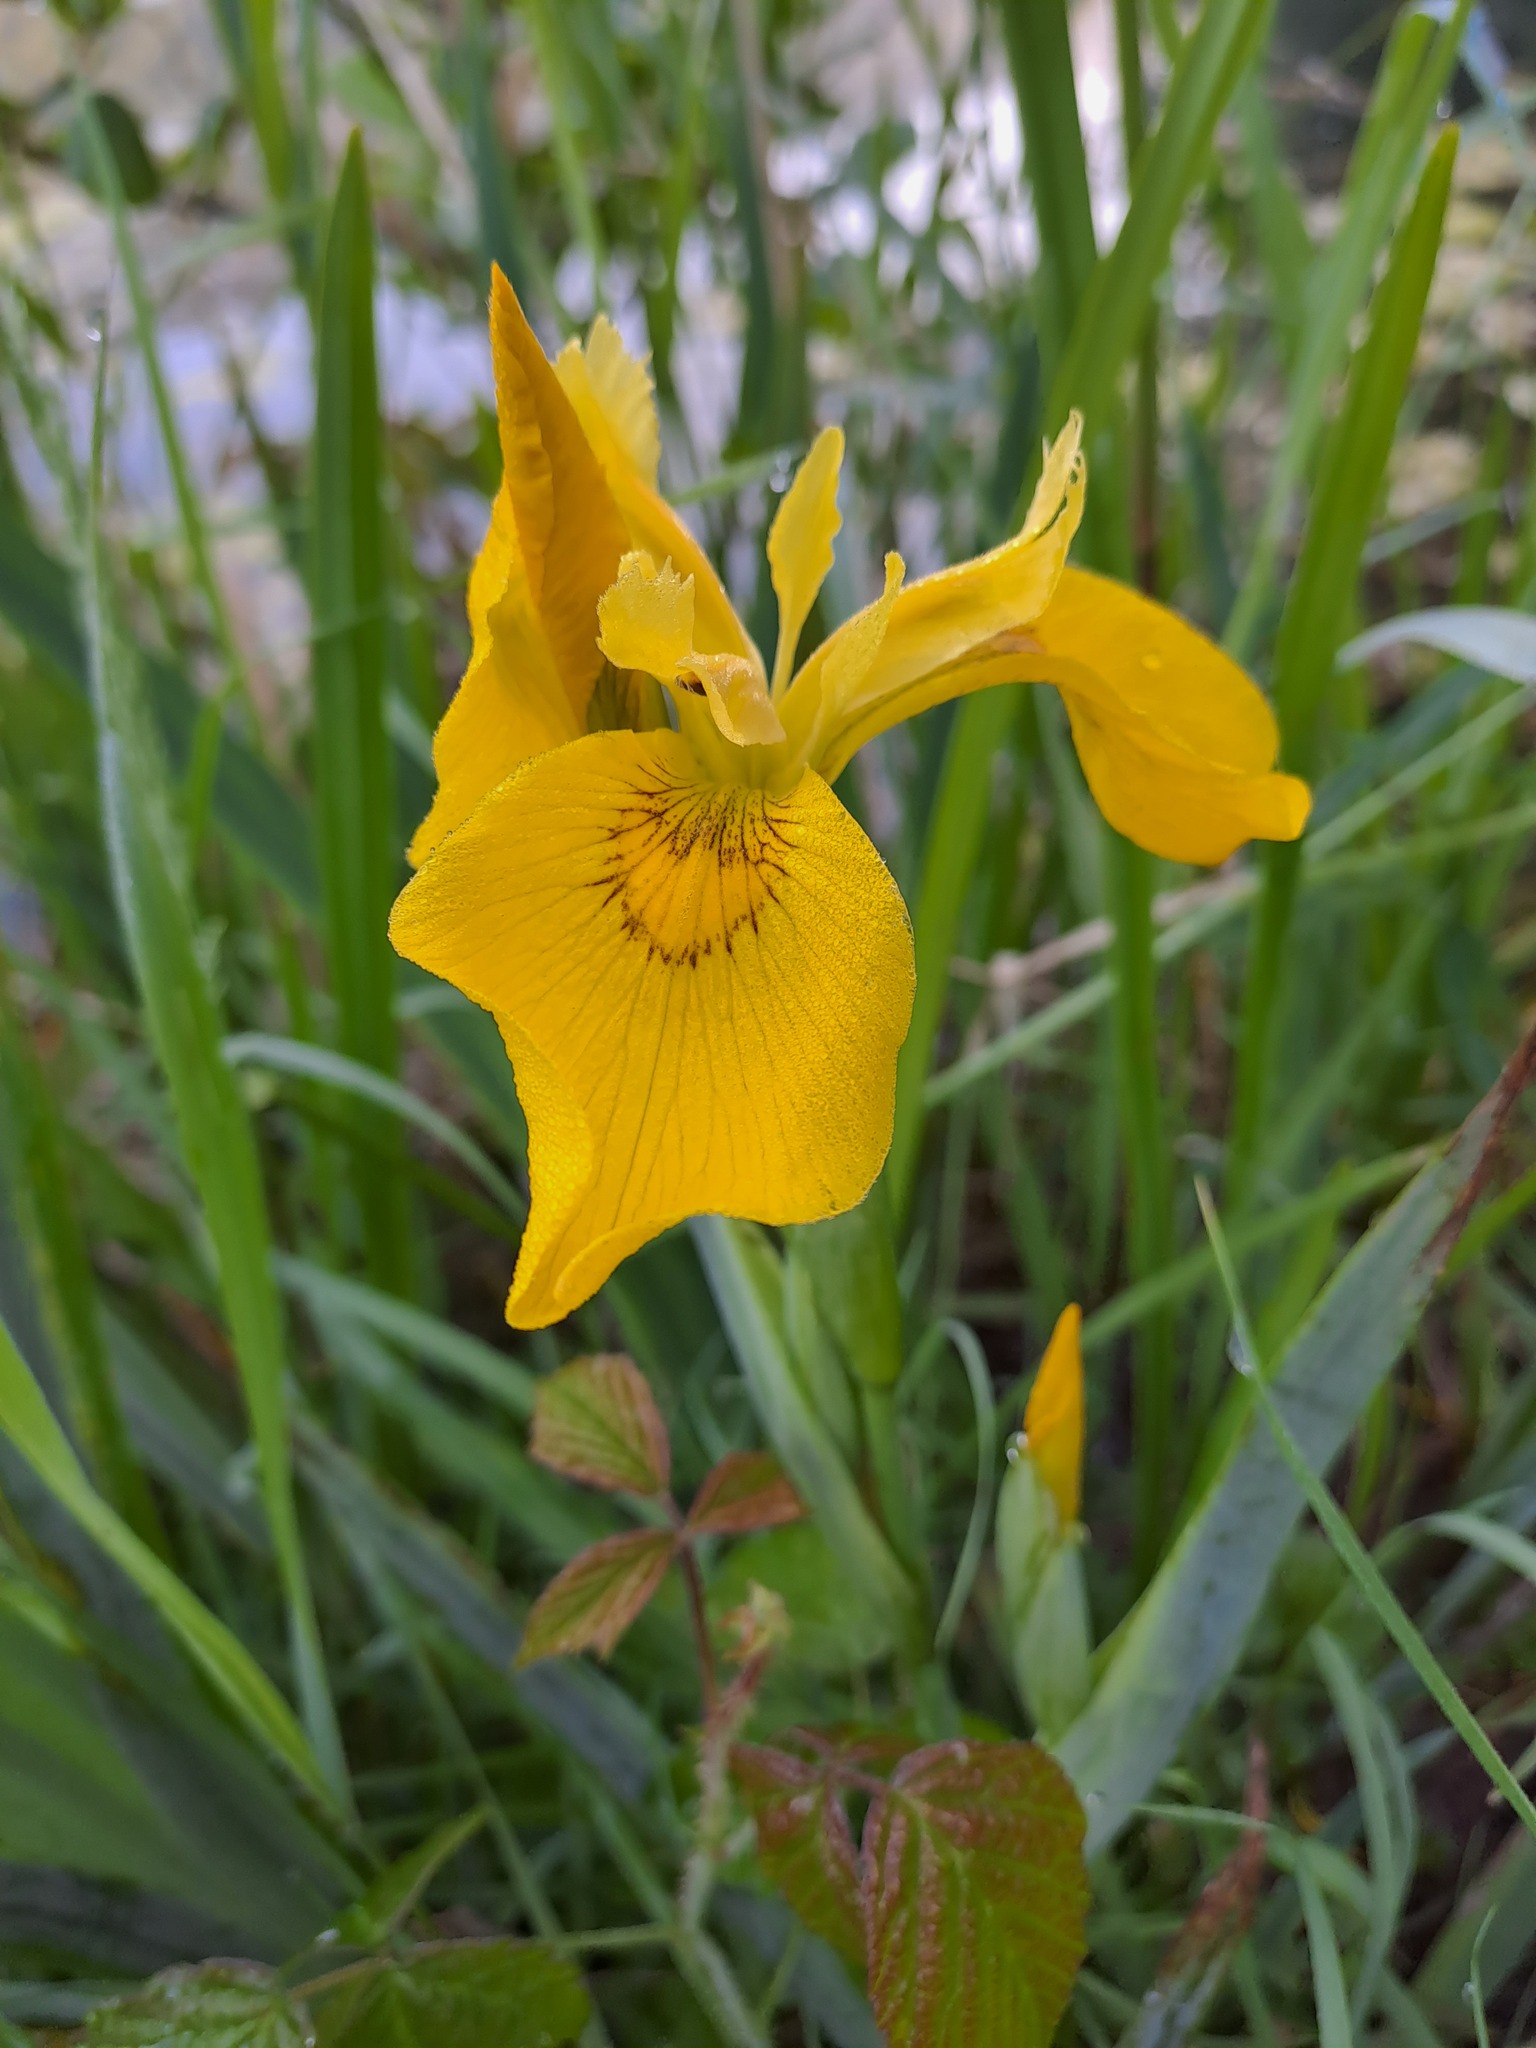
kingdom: Plantae
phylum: Tracheophyta
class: Liliopsida
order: Asparagales
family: Iridaceae
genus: Iris
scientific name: Iris pseudacorus
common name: Yellow flag
